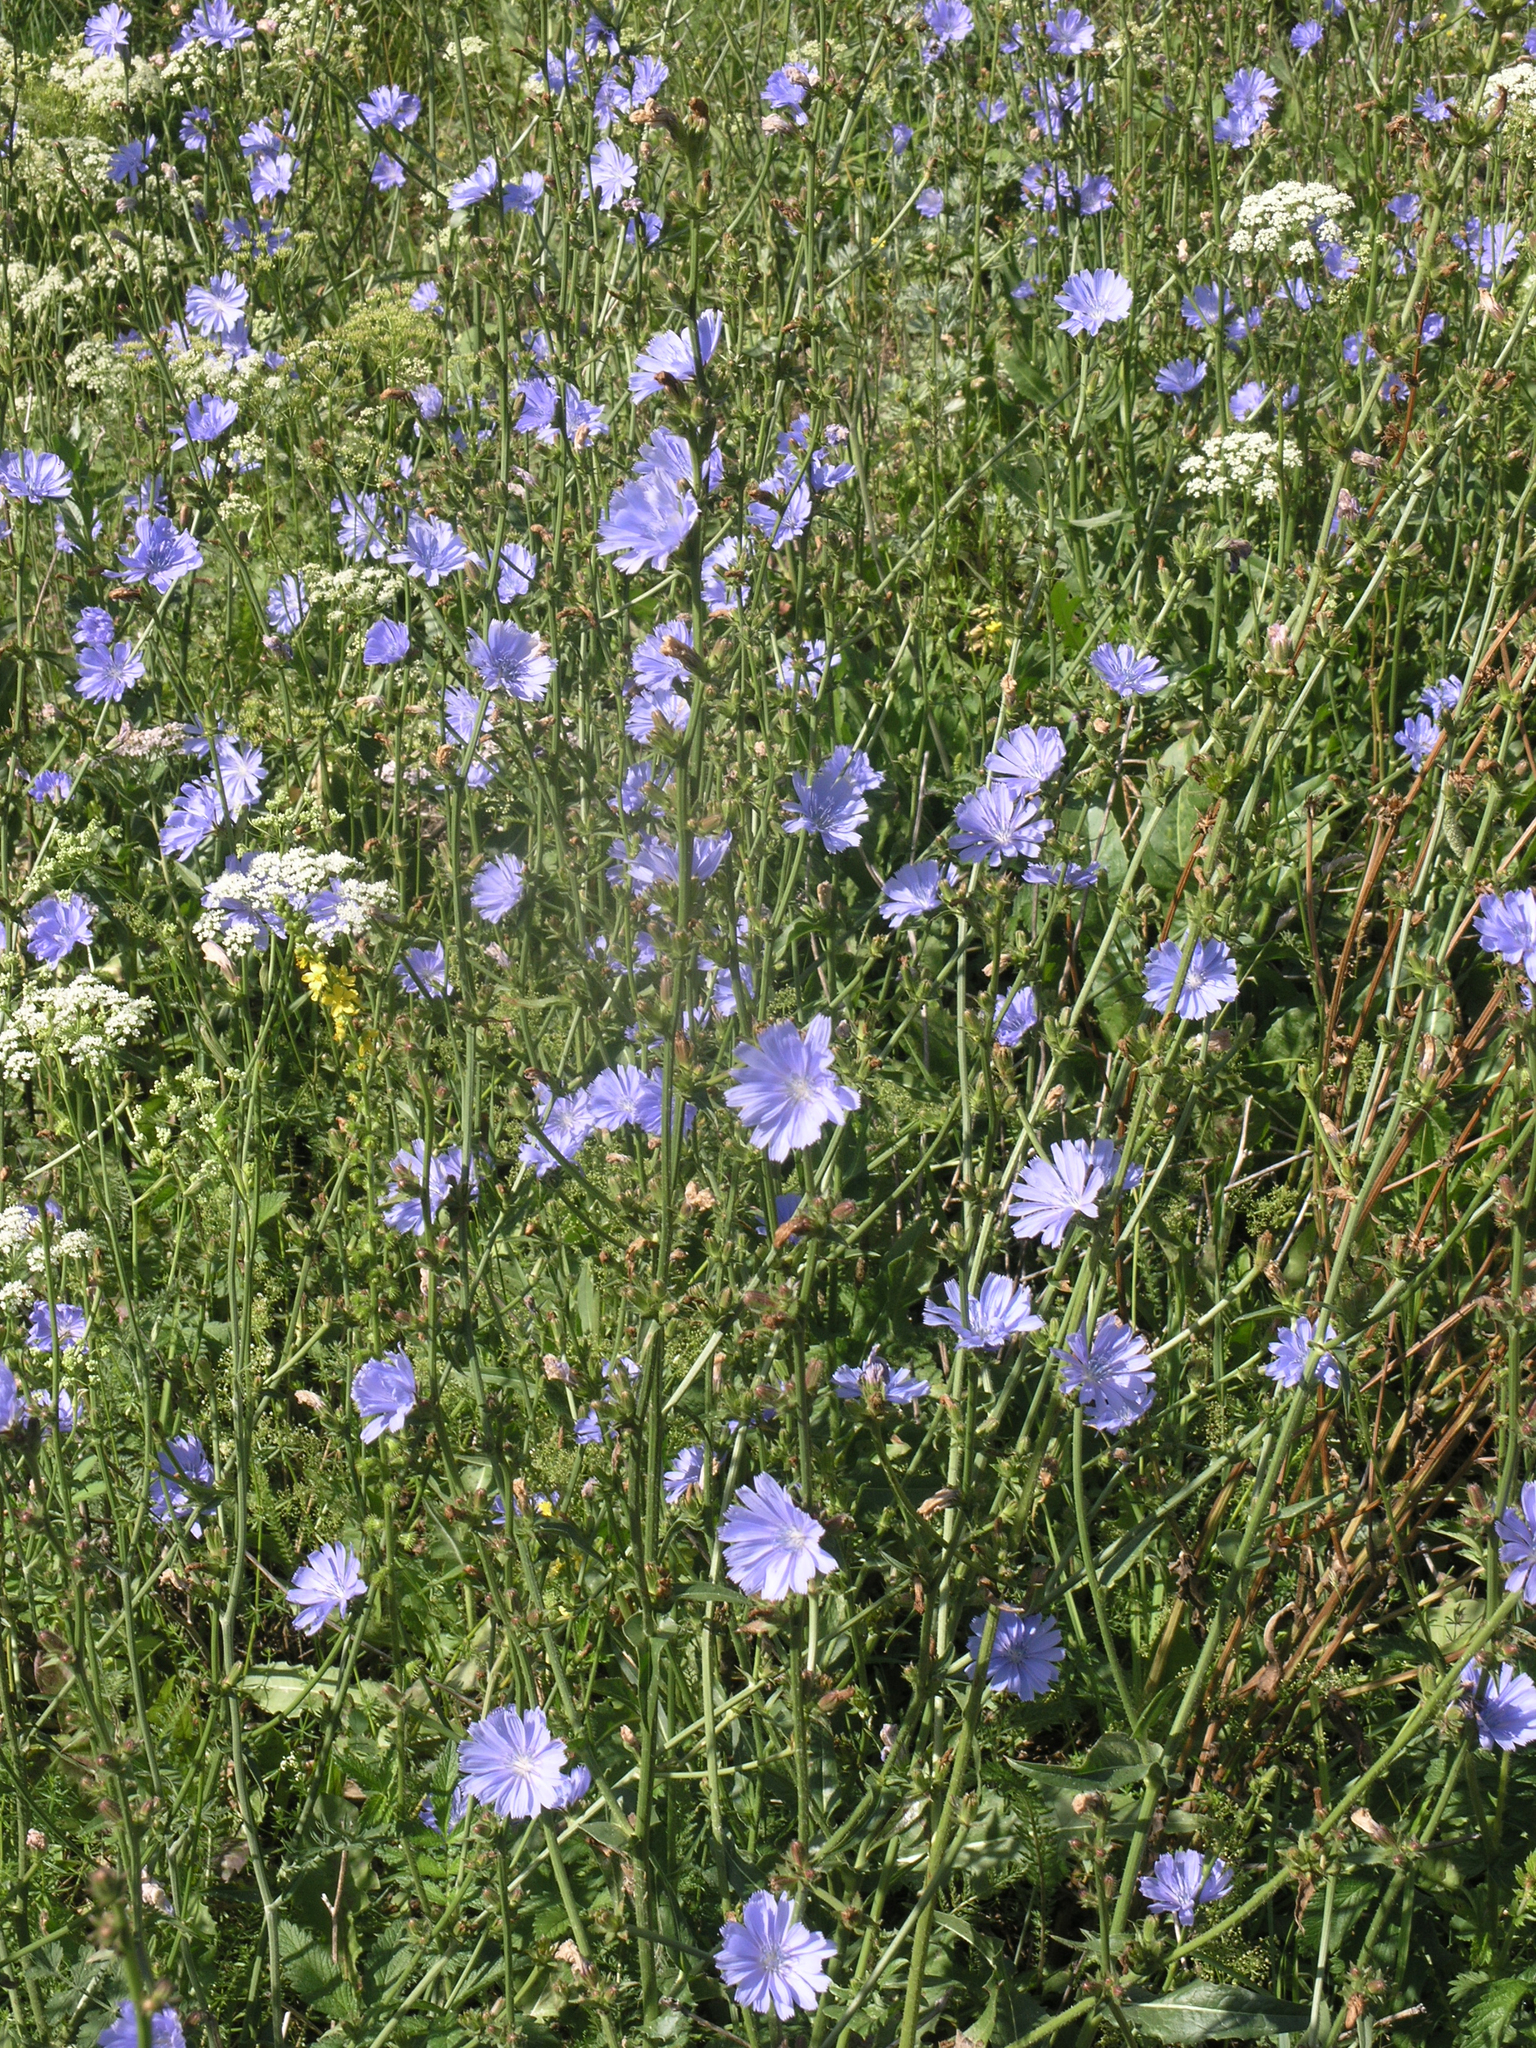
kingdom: Plantae
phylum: Tracheophyta
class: Magnoliopsida
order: Asterales
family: Asteraceae
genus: Cichorium
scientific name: Cichorium intybus
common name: Chicory
